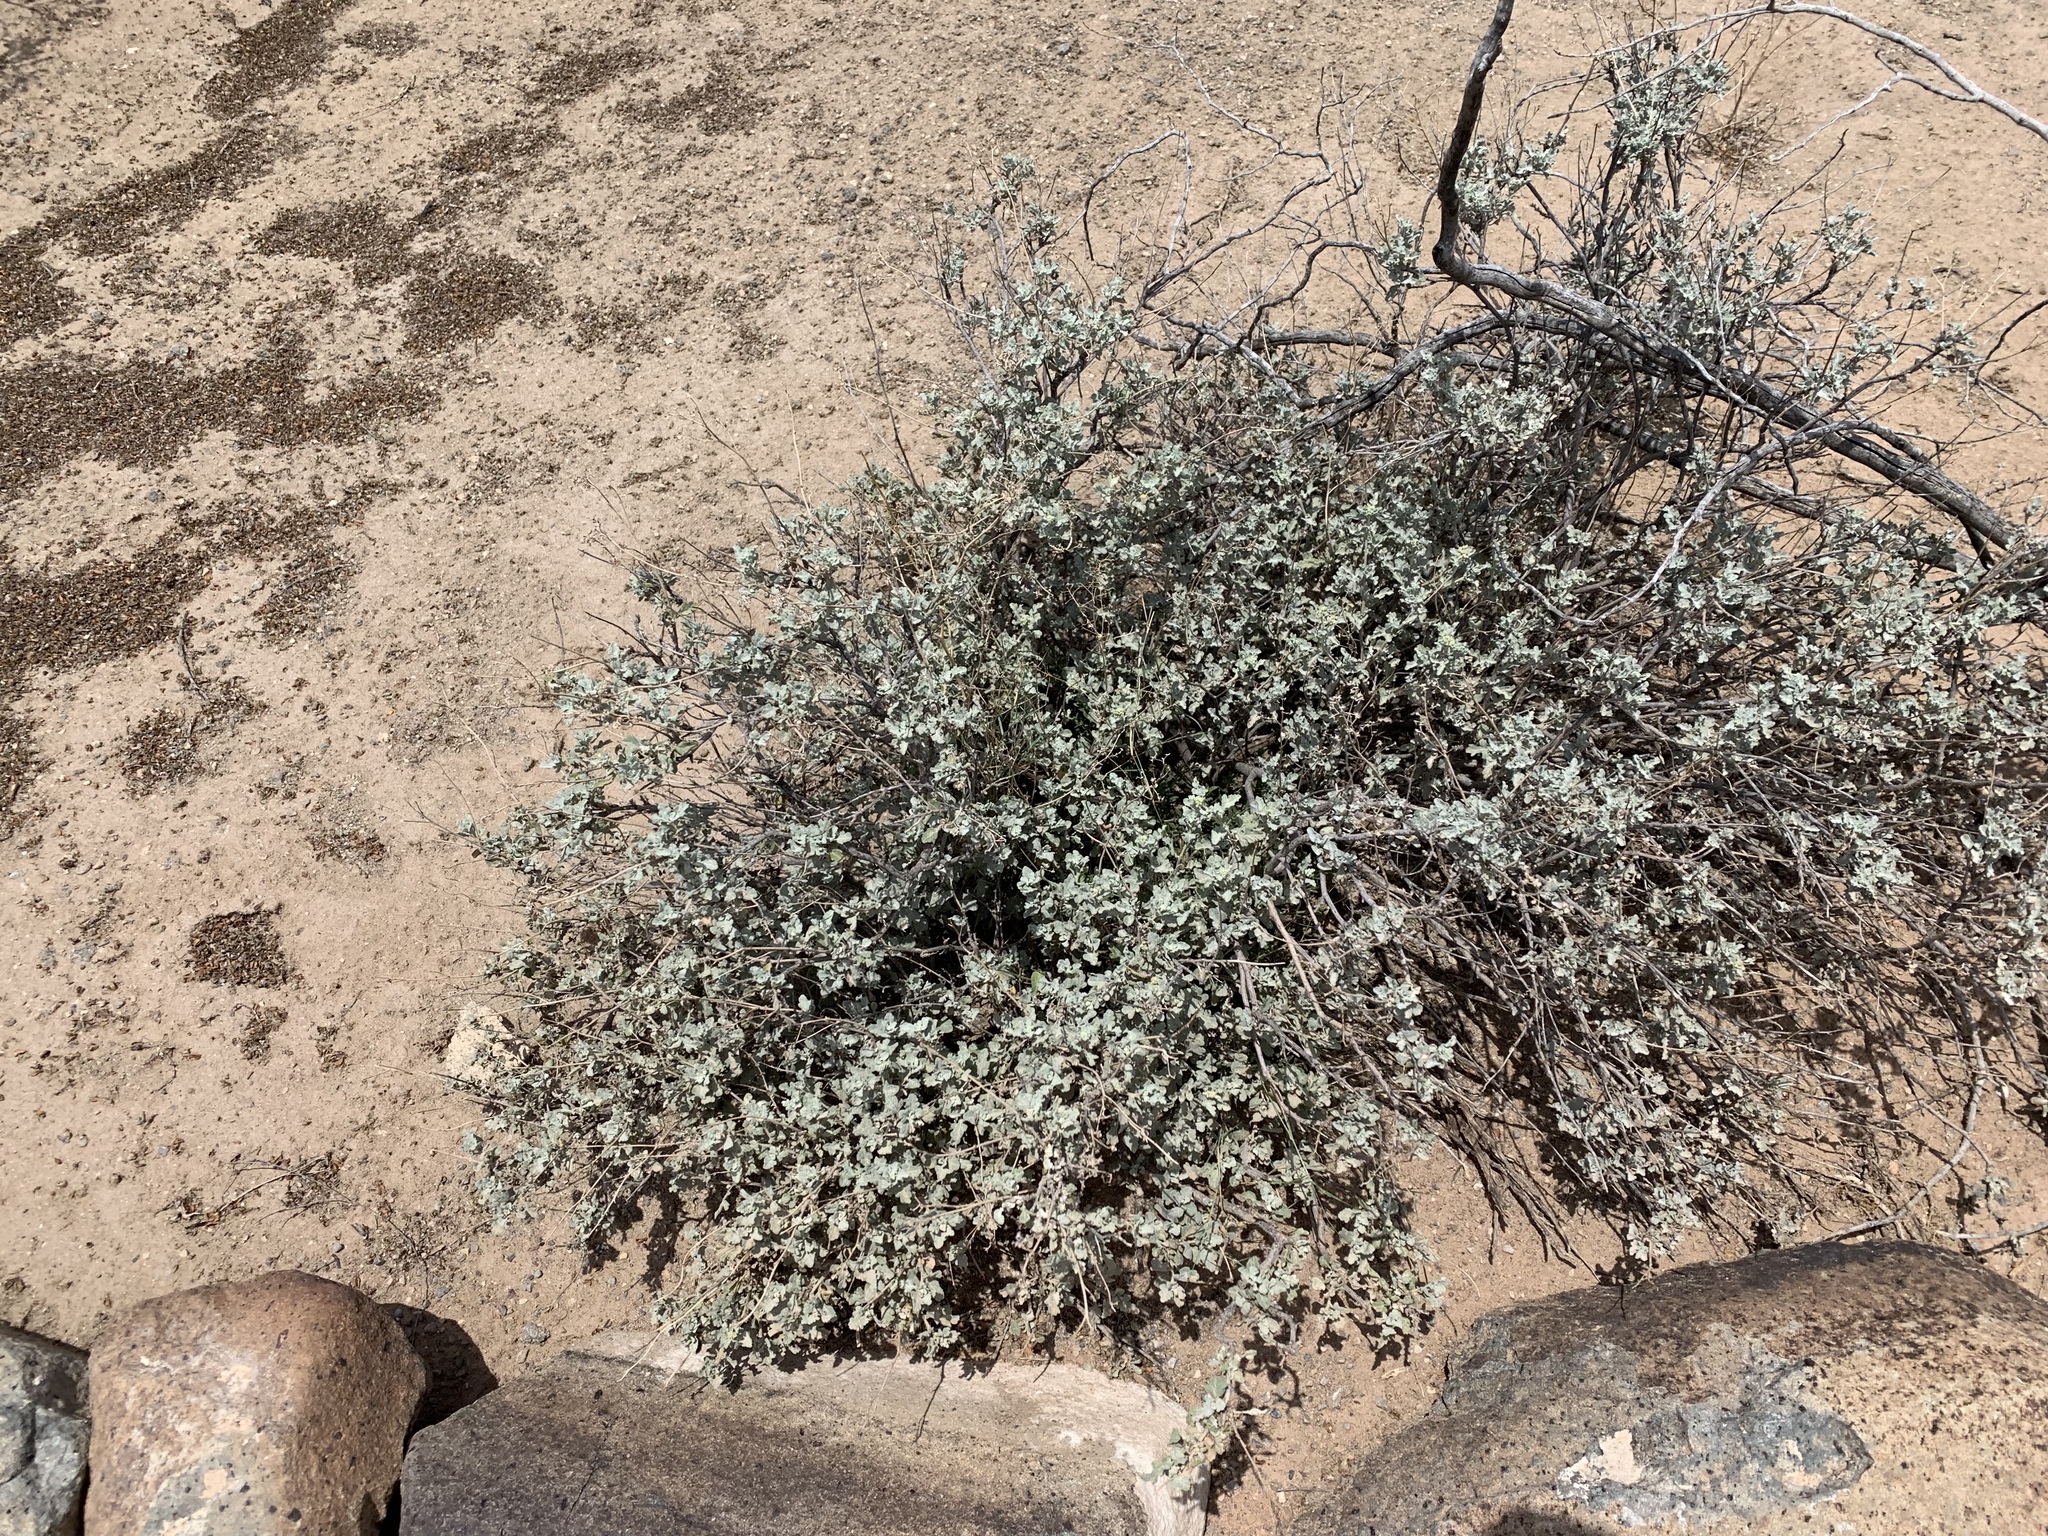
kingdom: Plantae
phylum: Tracheophyta
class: Magnoliopsida
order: Asterales
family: Asteraceae
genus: Parthenium
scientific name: Parthenium incanum
